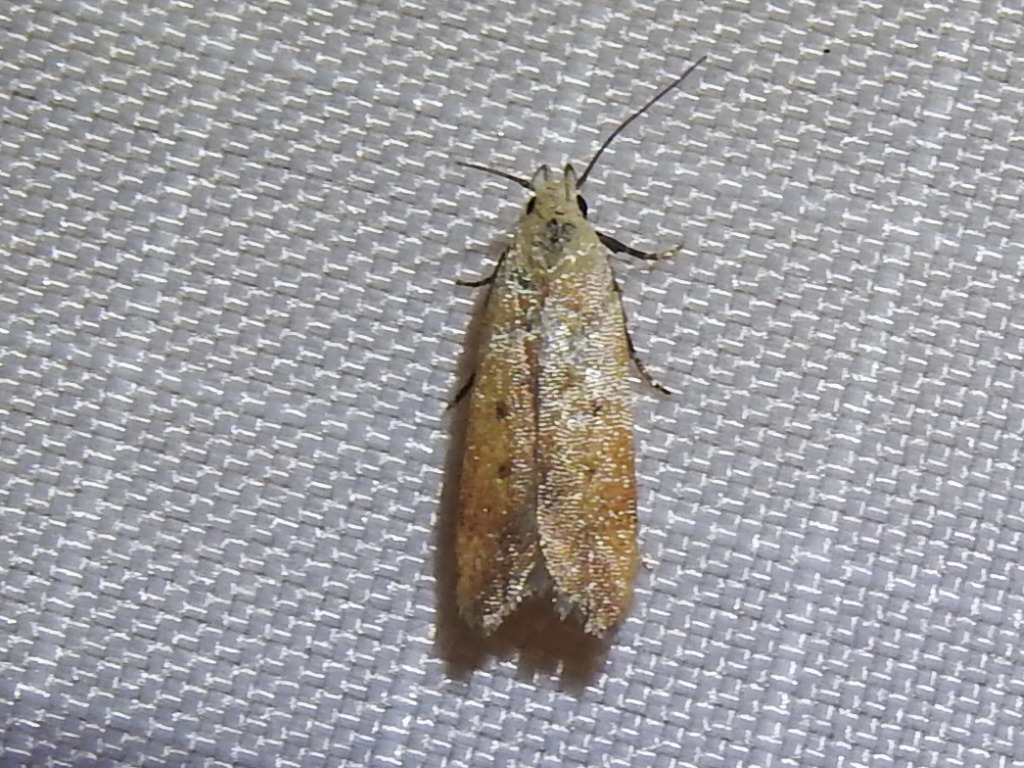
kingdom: Animalia
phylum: Arthropoda
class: Insecta
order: Lepidoptera
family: Gelechiidae
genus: Anacampsis
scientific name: Anacampsis fullonella
